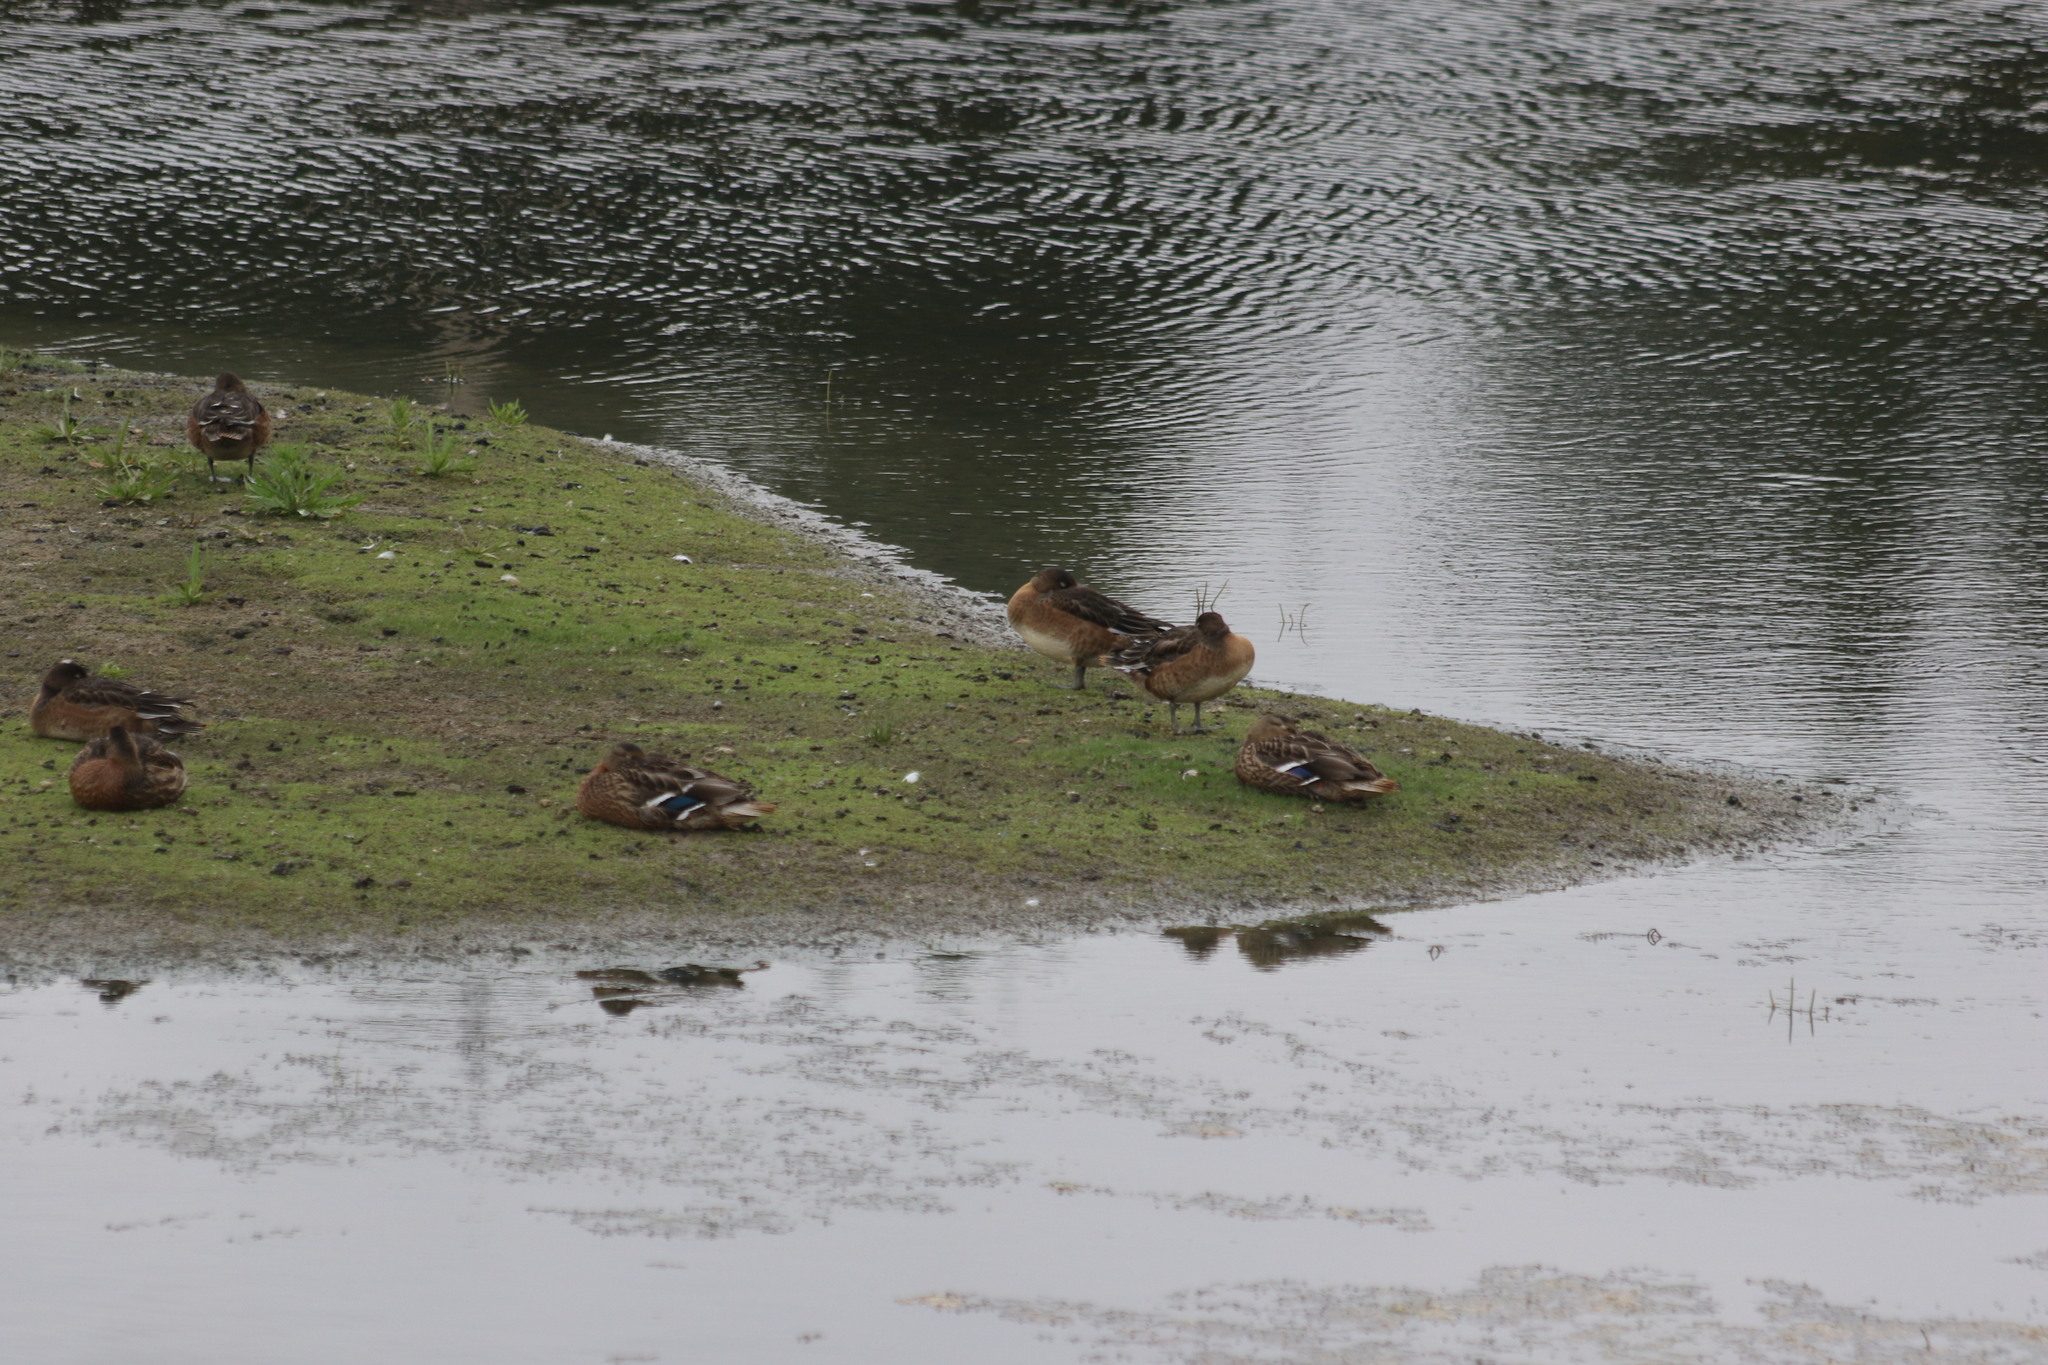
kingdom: Animalia
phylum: Chordata
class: Aves
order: Anseriformes
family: Anatidae
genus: Mareca
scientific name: Mareca penelope
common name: Eurasian wigeon
